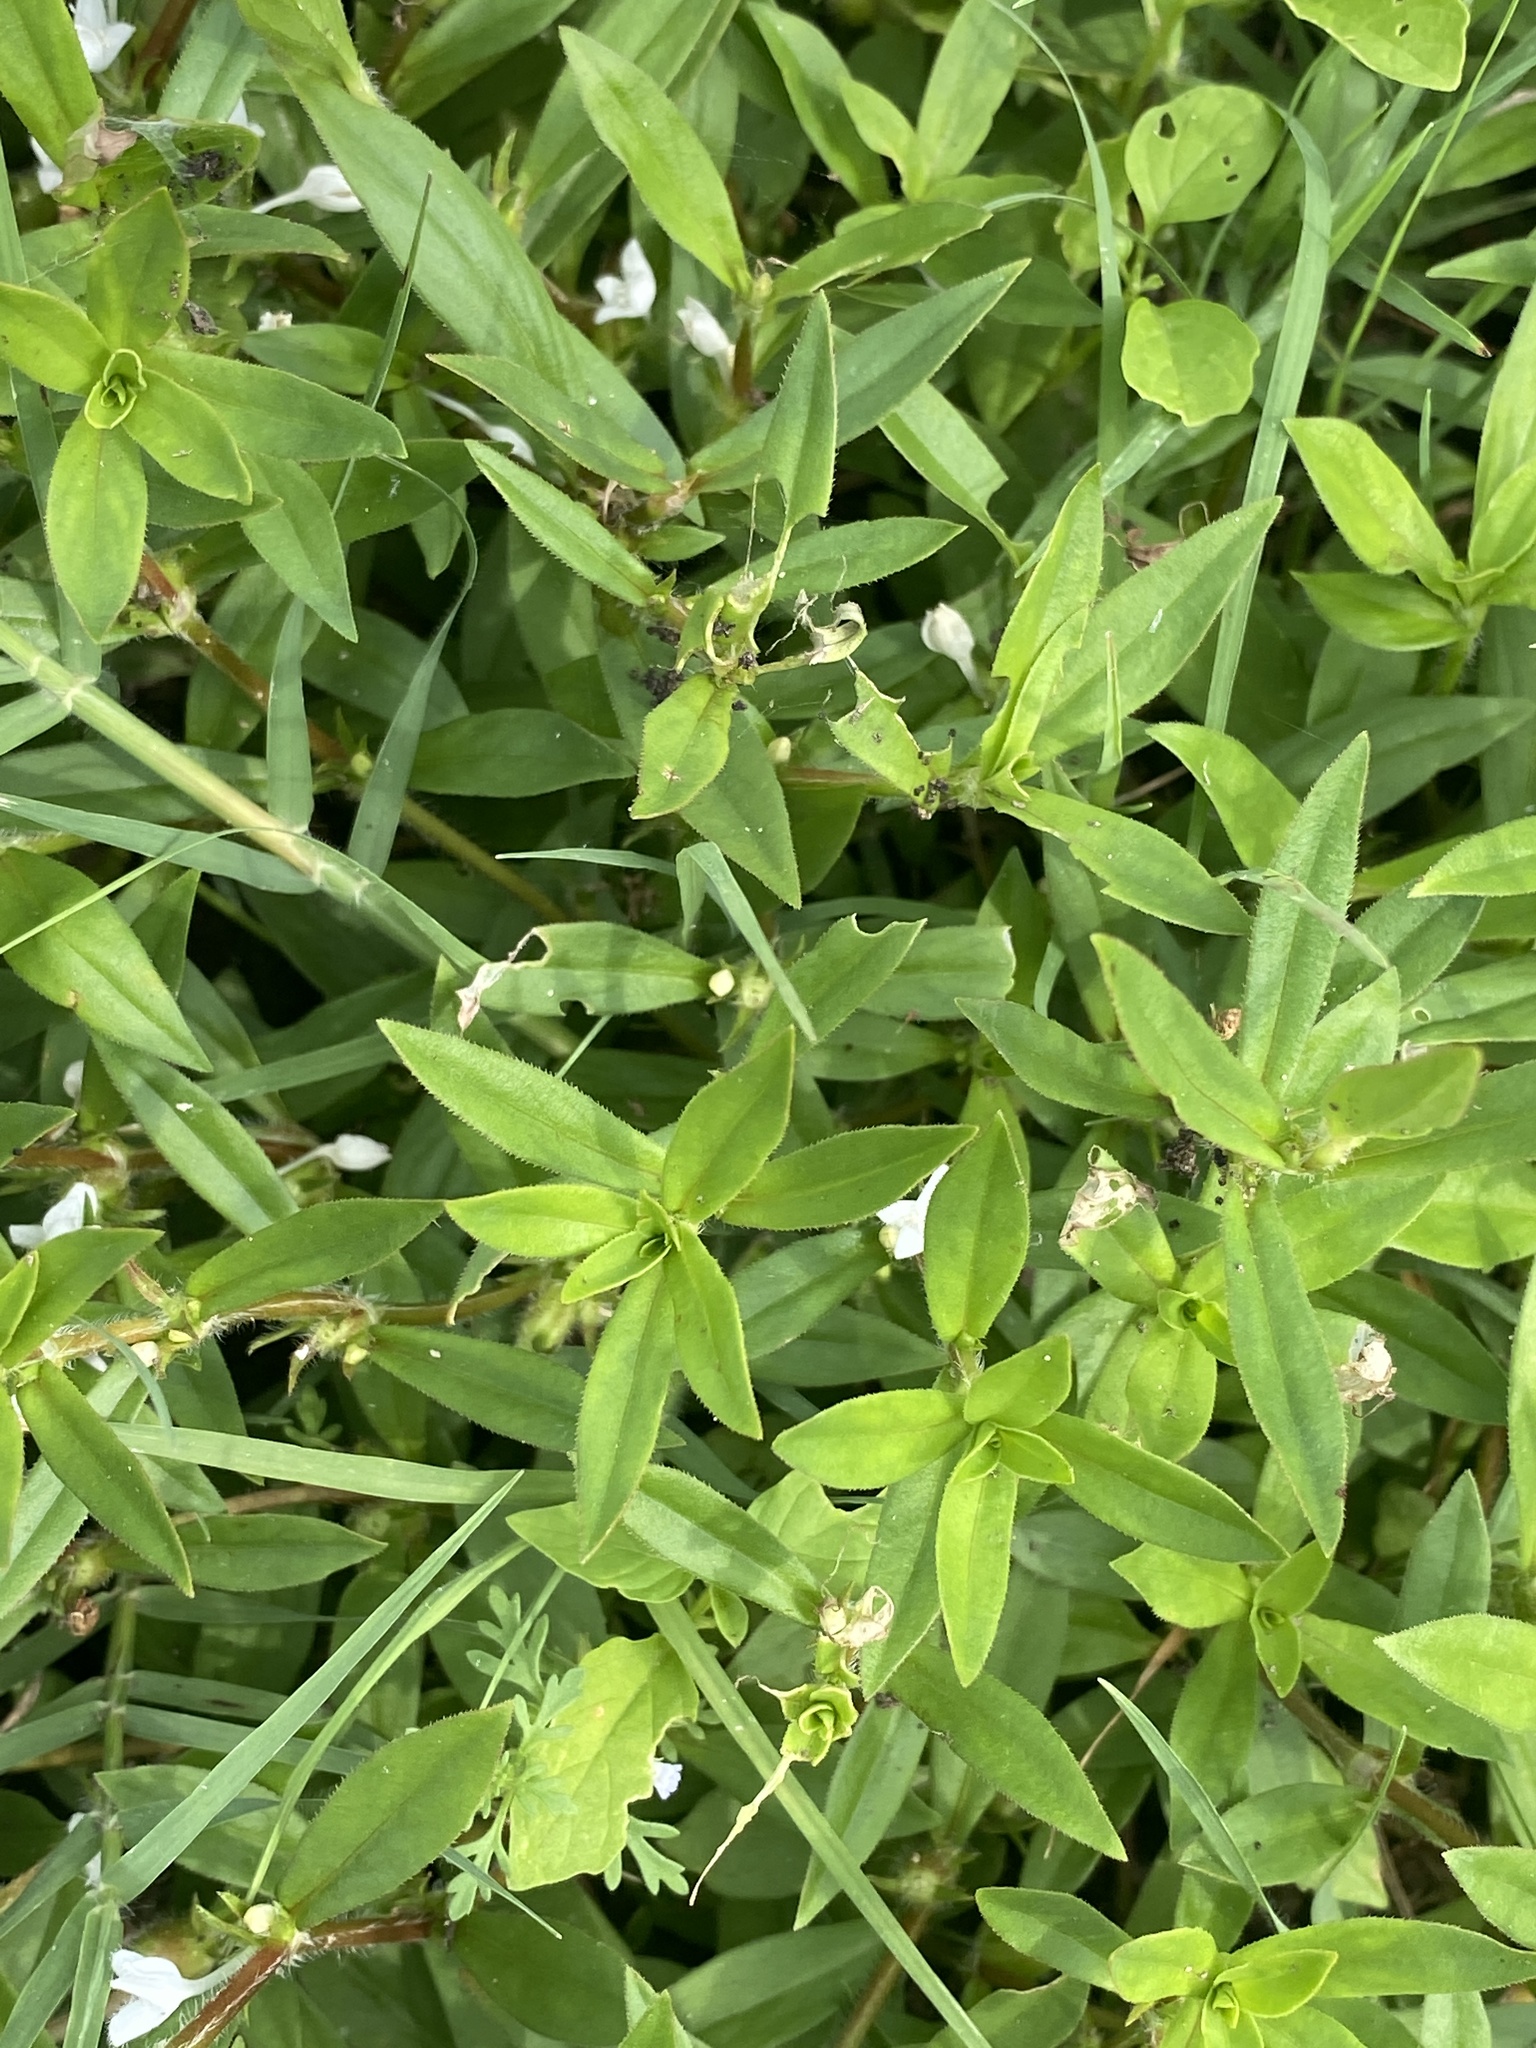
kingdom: Plantae
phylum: Tracheophyta
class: Magnoliopsida
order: Gentianales
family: Rubiaceae
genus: Diodia
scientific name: Diodia virginiana
